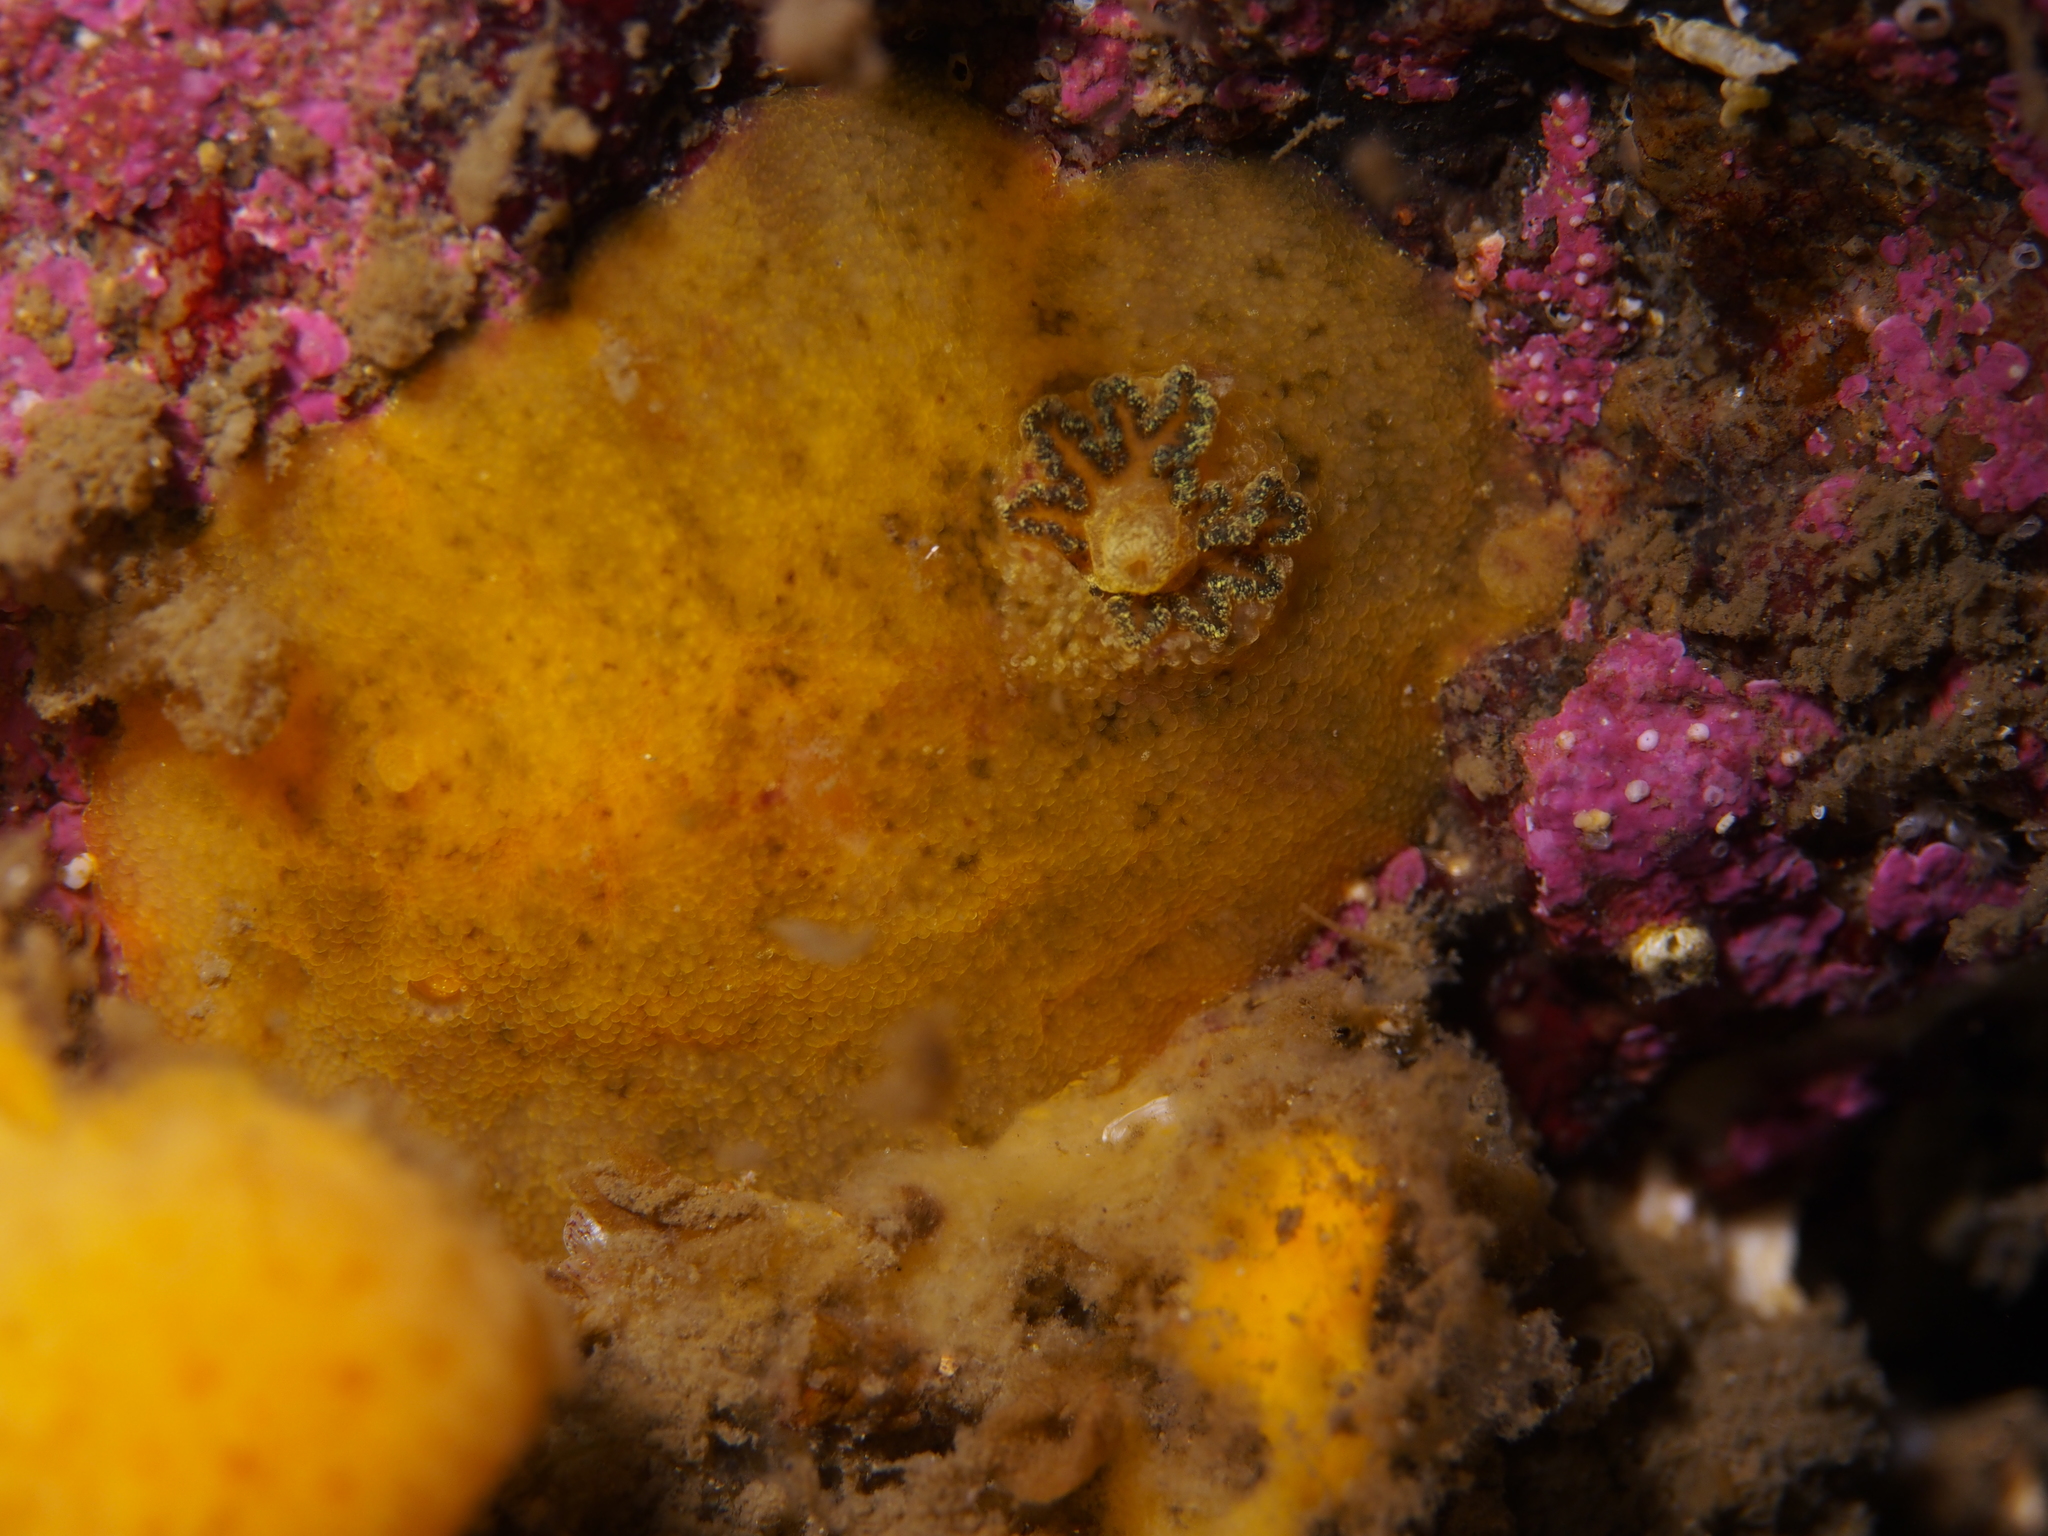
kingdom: Animalia
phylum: Mollusca
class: Gastropoda
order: Nudibranchia
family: Dorididae
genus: Doris
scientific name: Doris pseudoargus
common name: Sea lemon
